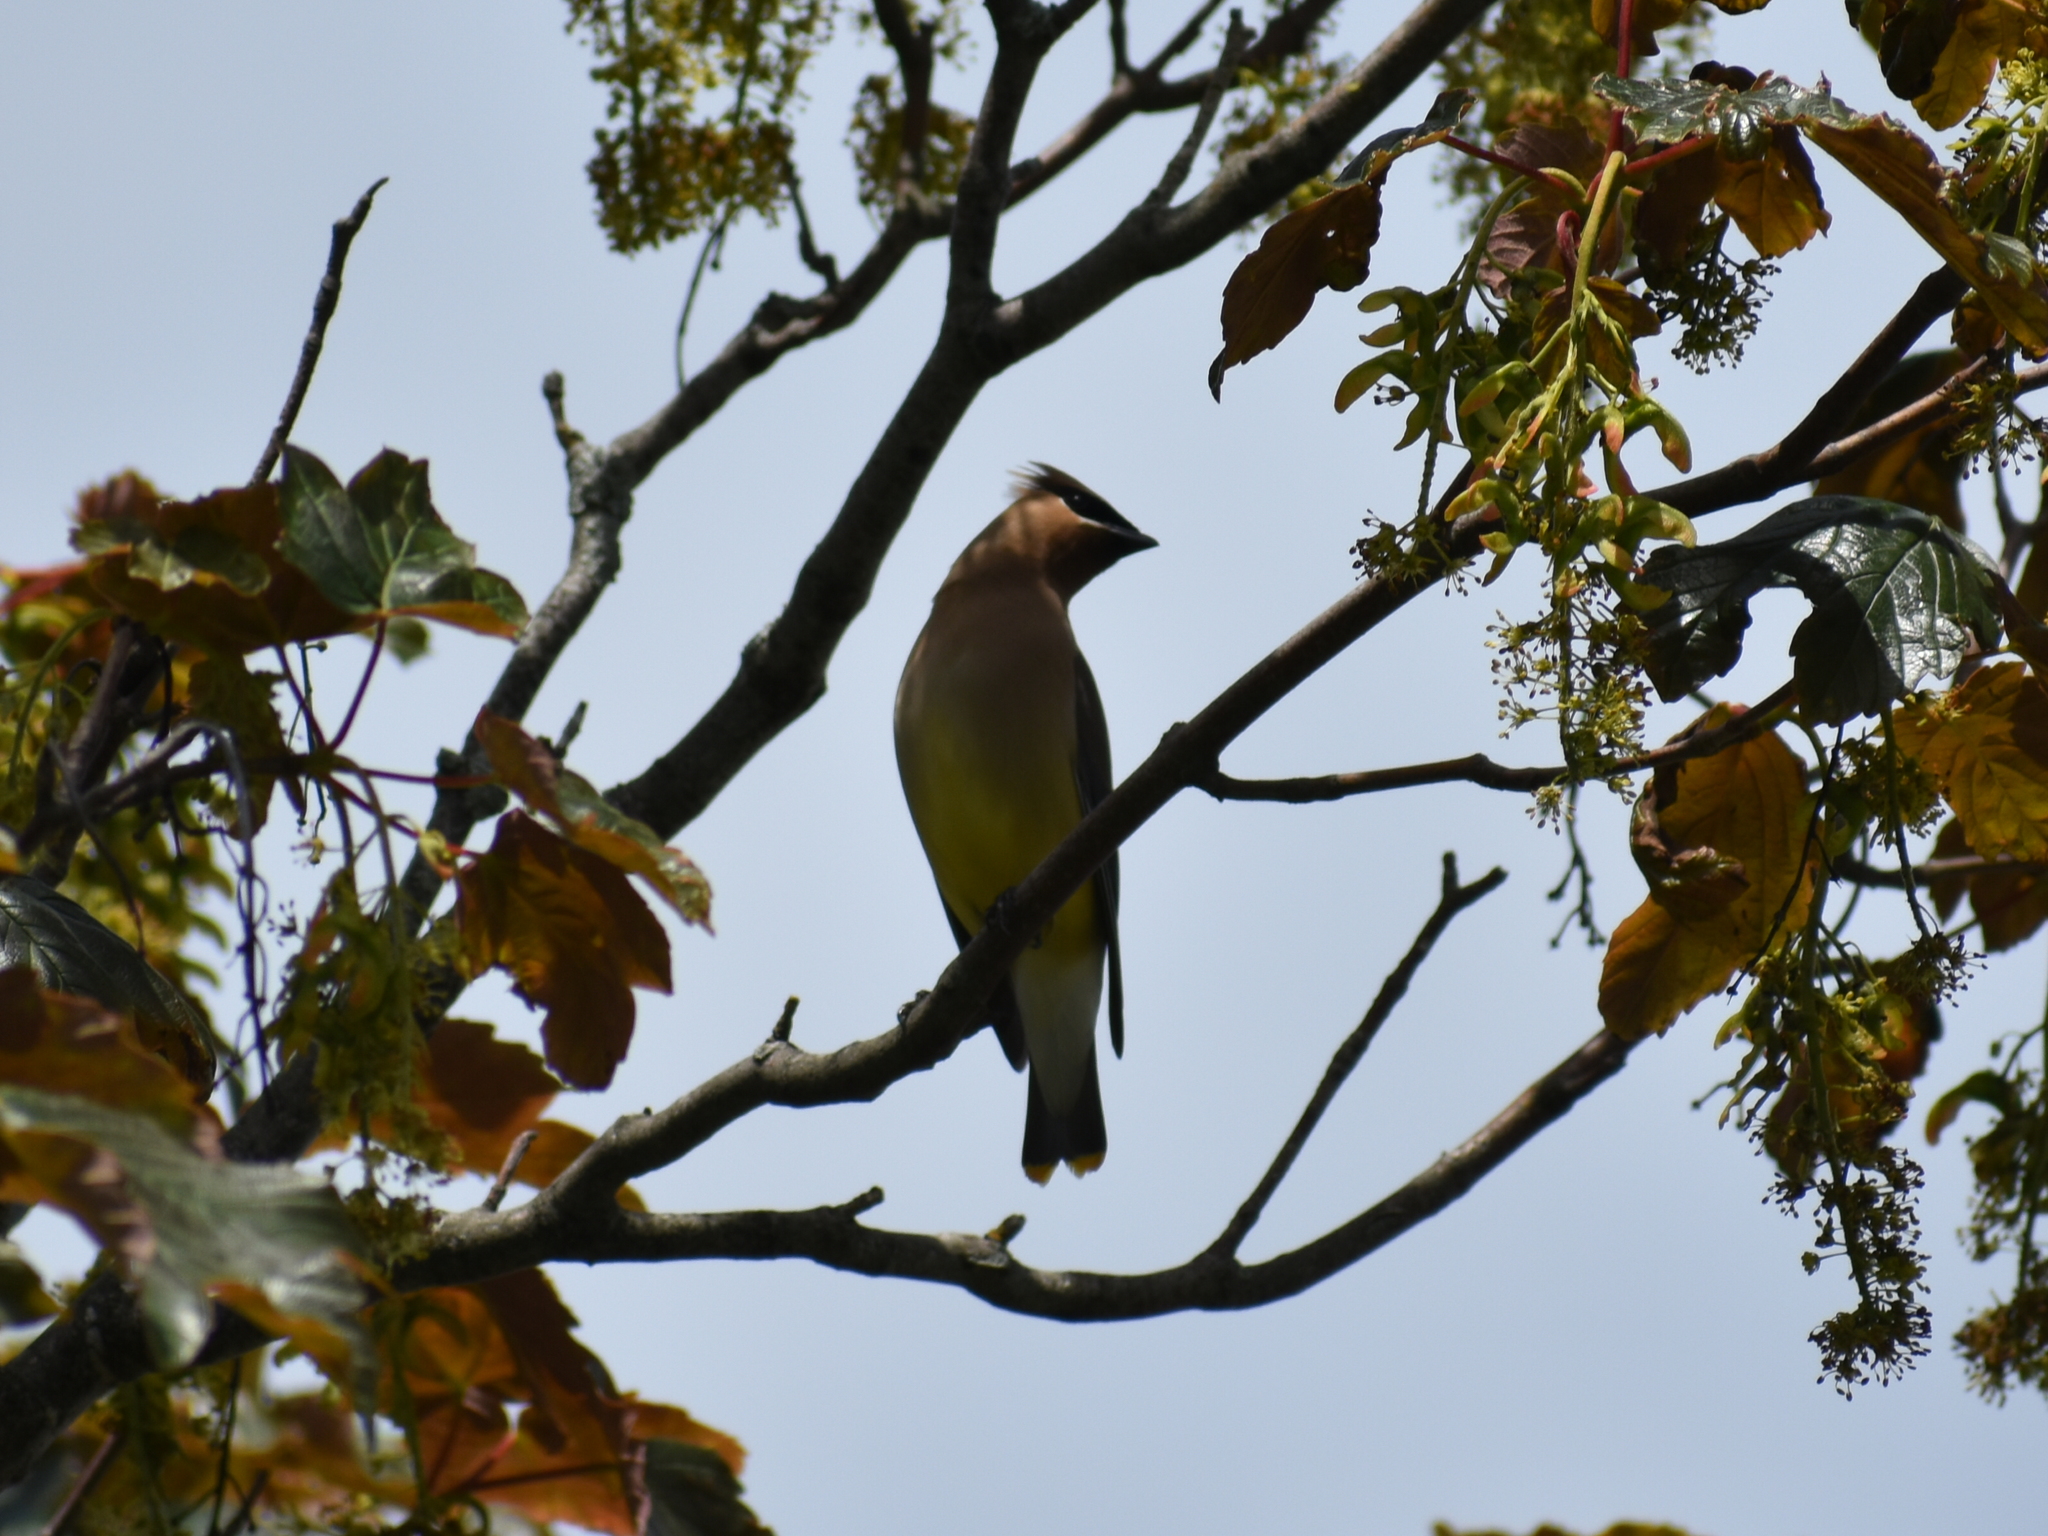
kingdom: Animalia
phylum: Chordata
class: Aves
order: Passeriformes
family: Bombycillidae
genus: Bombycilla
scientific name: Bombycilla cedrorum
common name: Cedar waxwing
